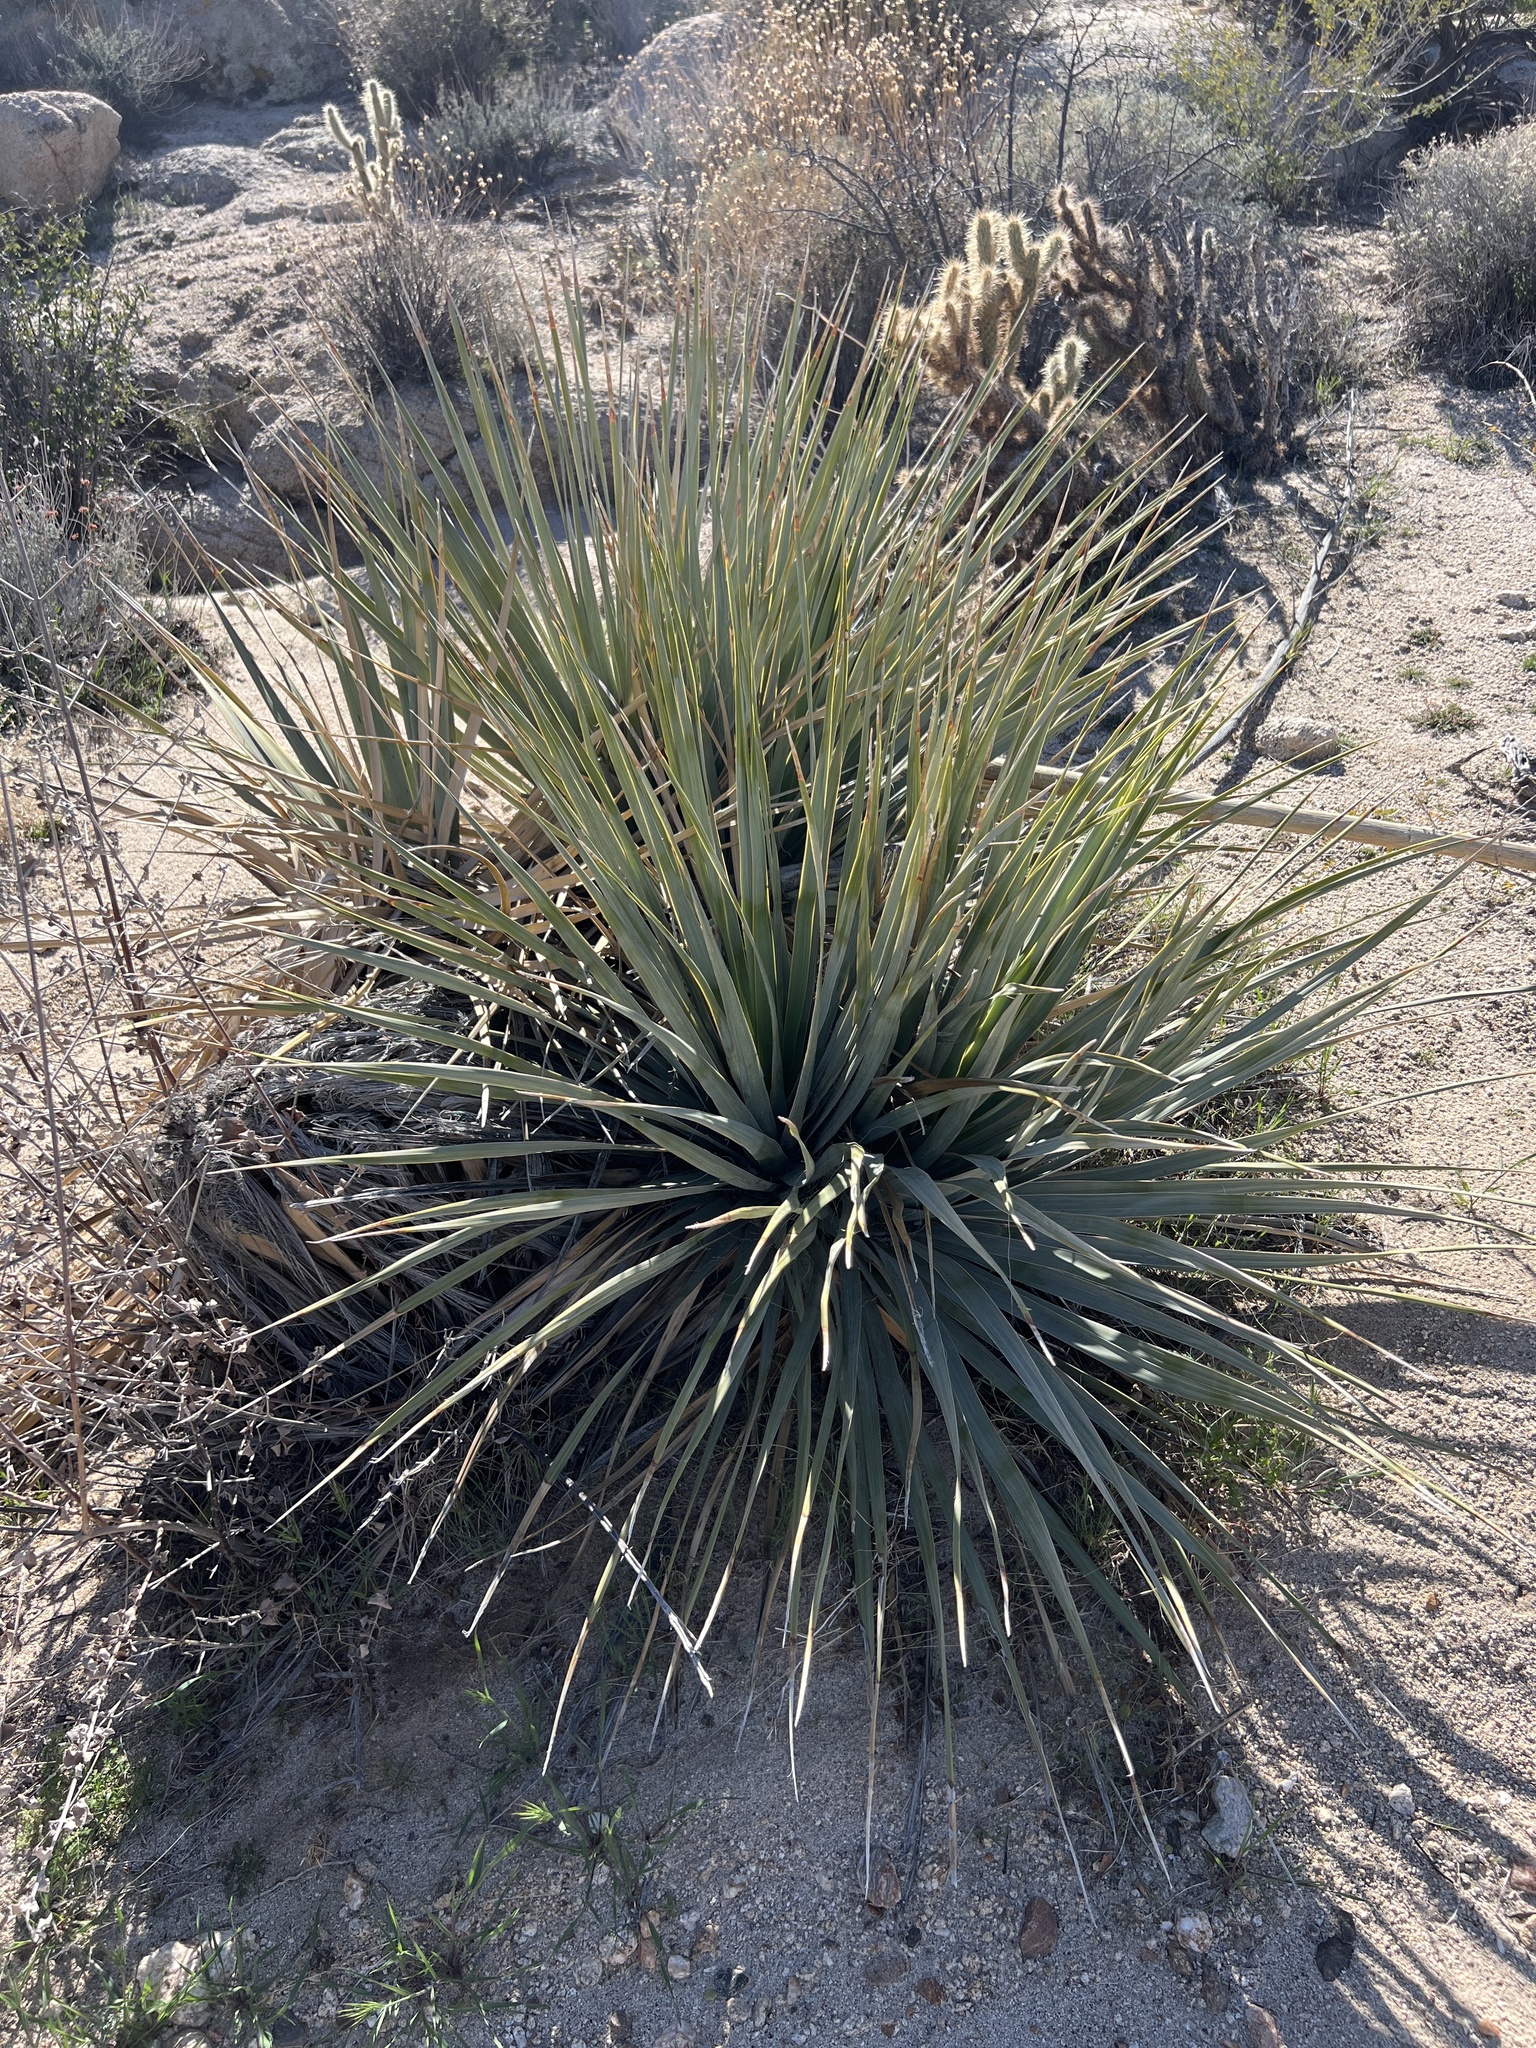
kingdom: Plantae
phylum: Tracheophyta
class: Liliopsida
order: Asparagales
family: Asparagaceae
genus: Nolina
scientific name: Nolina bigelovii
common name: Bigelow bear-grass
